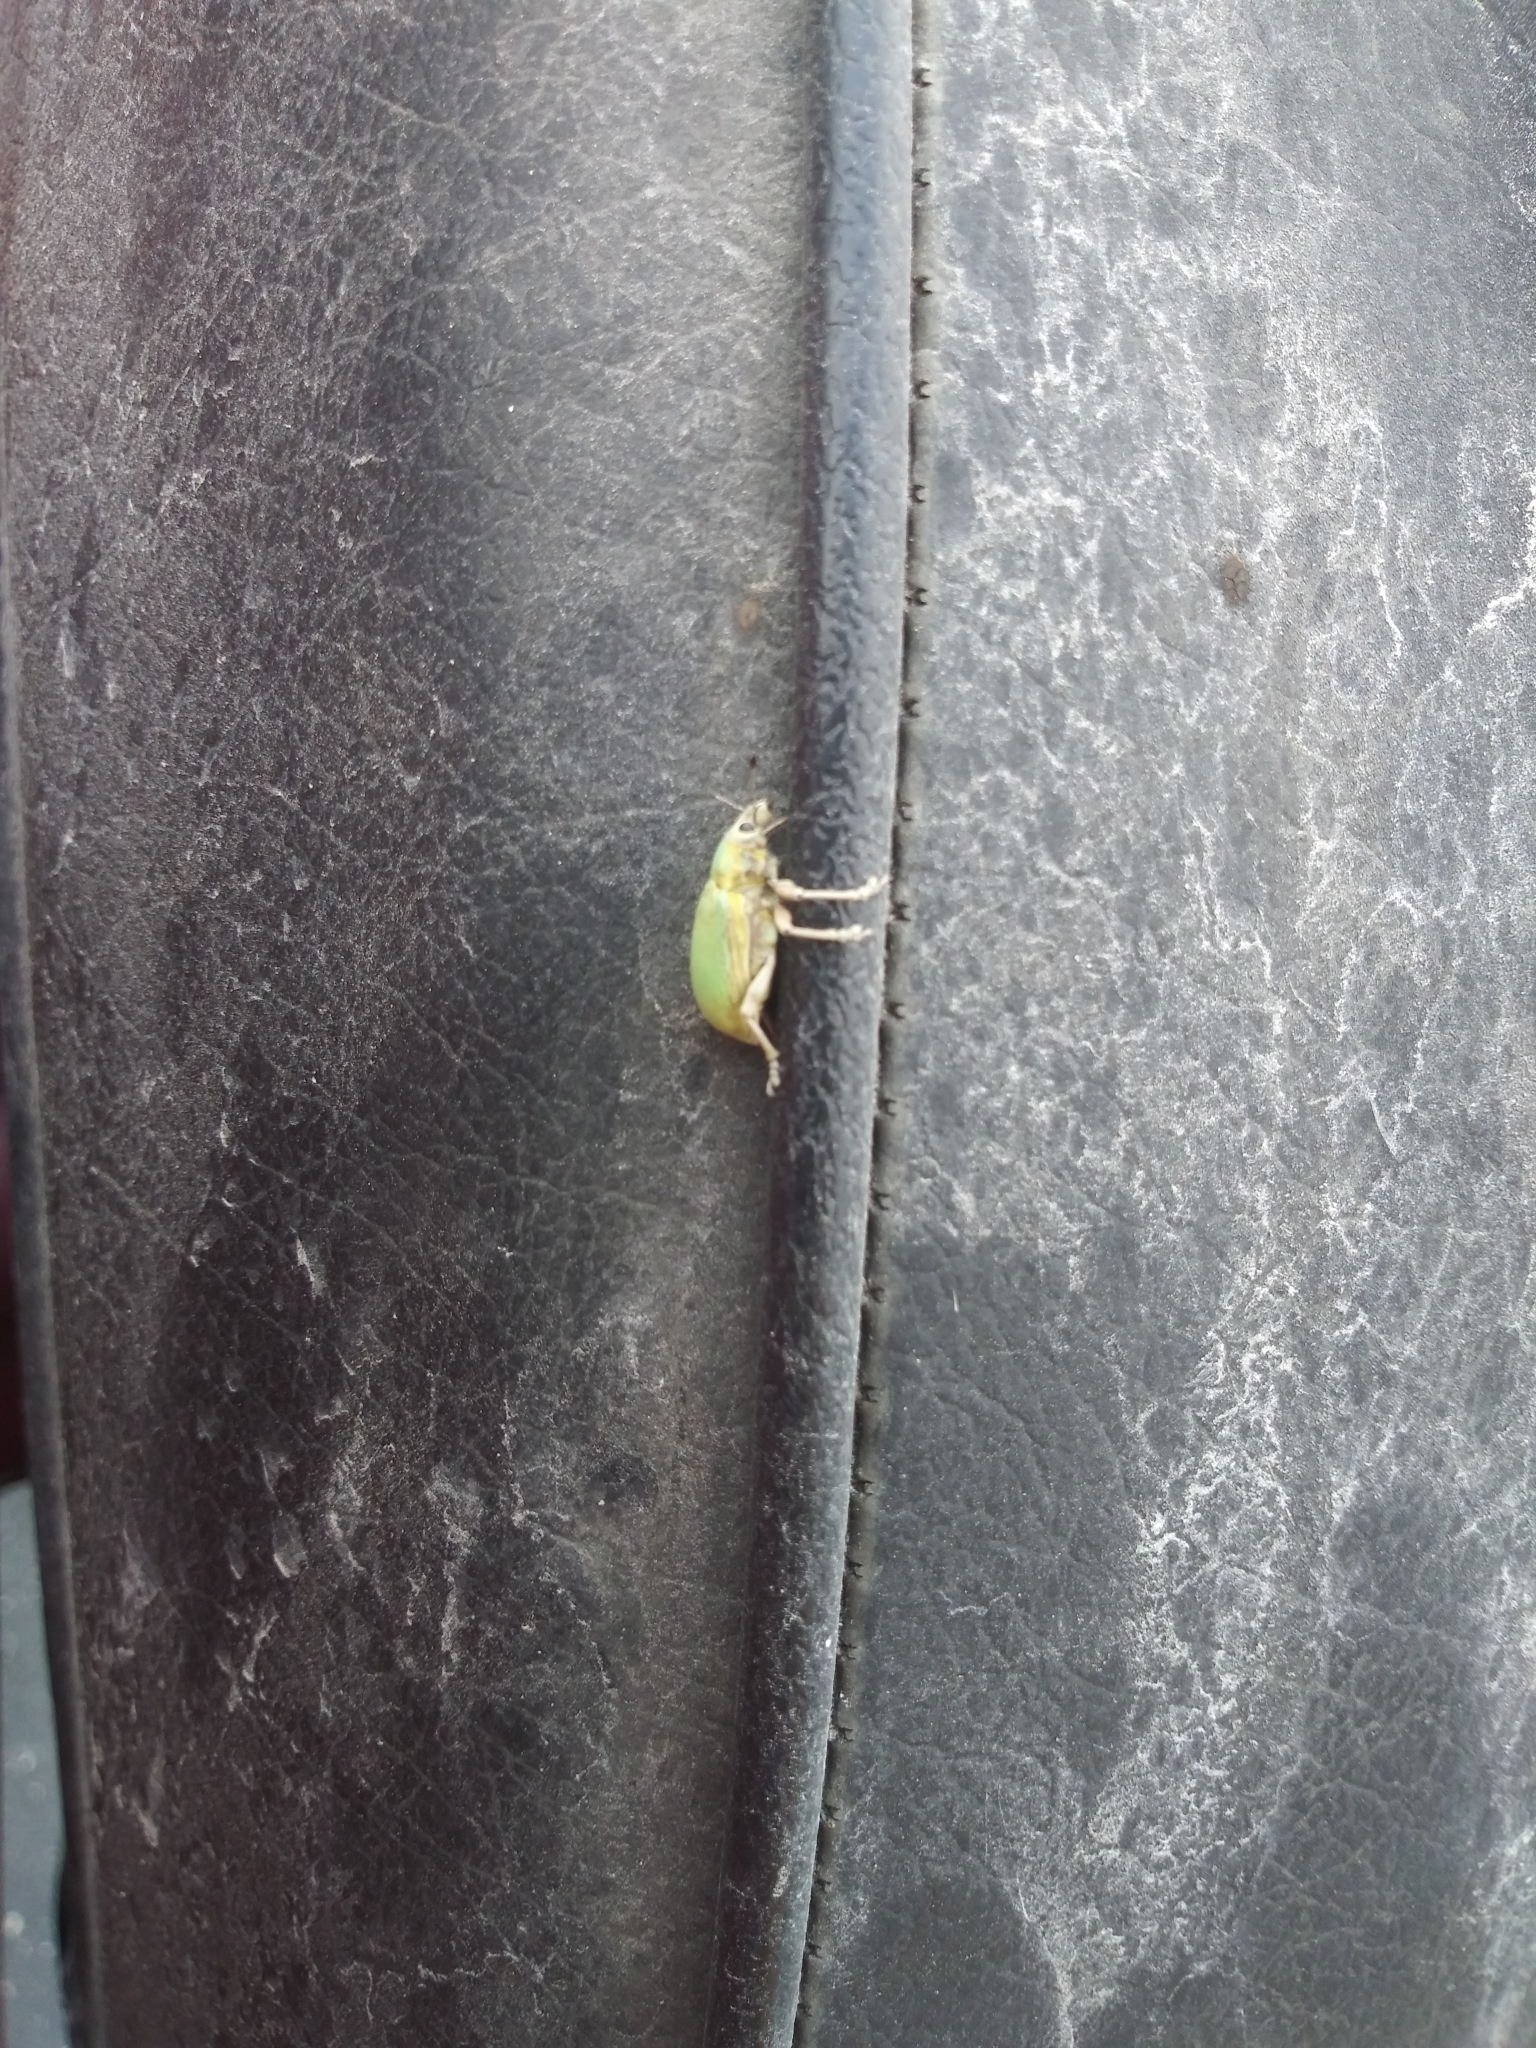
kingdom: Animalia
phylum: Arthropoda
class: Insecta
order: Coleoptera
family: Curculionidae
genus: Pachnaeus
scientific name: Pachnaeus litus
